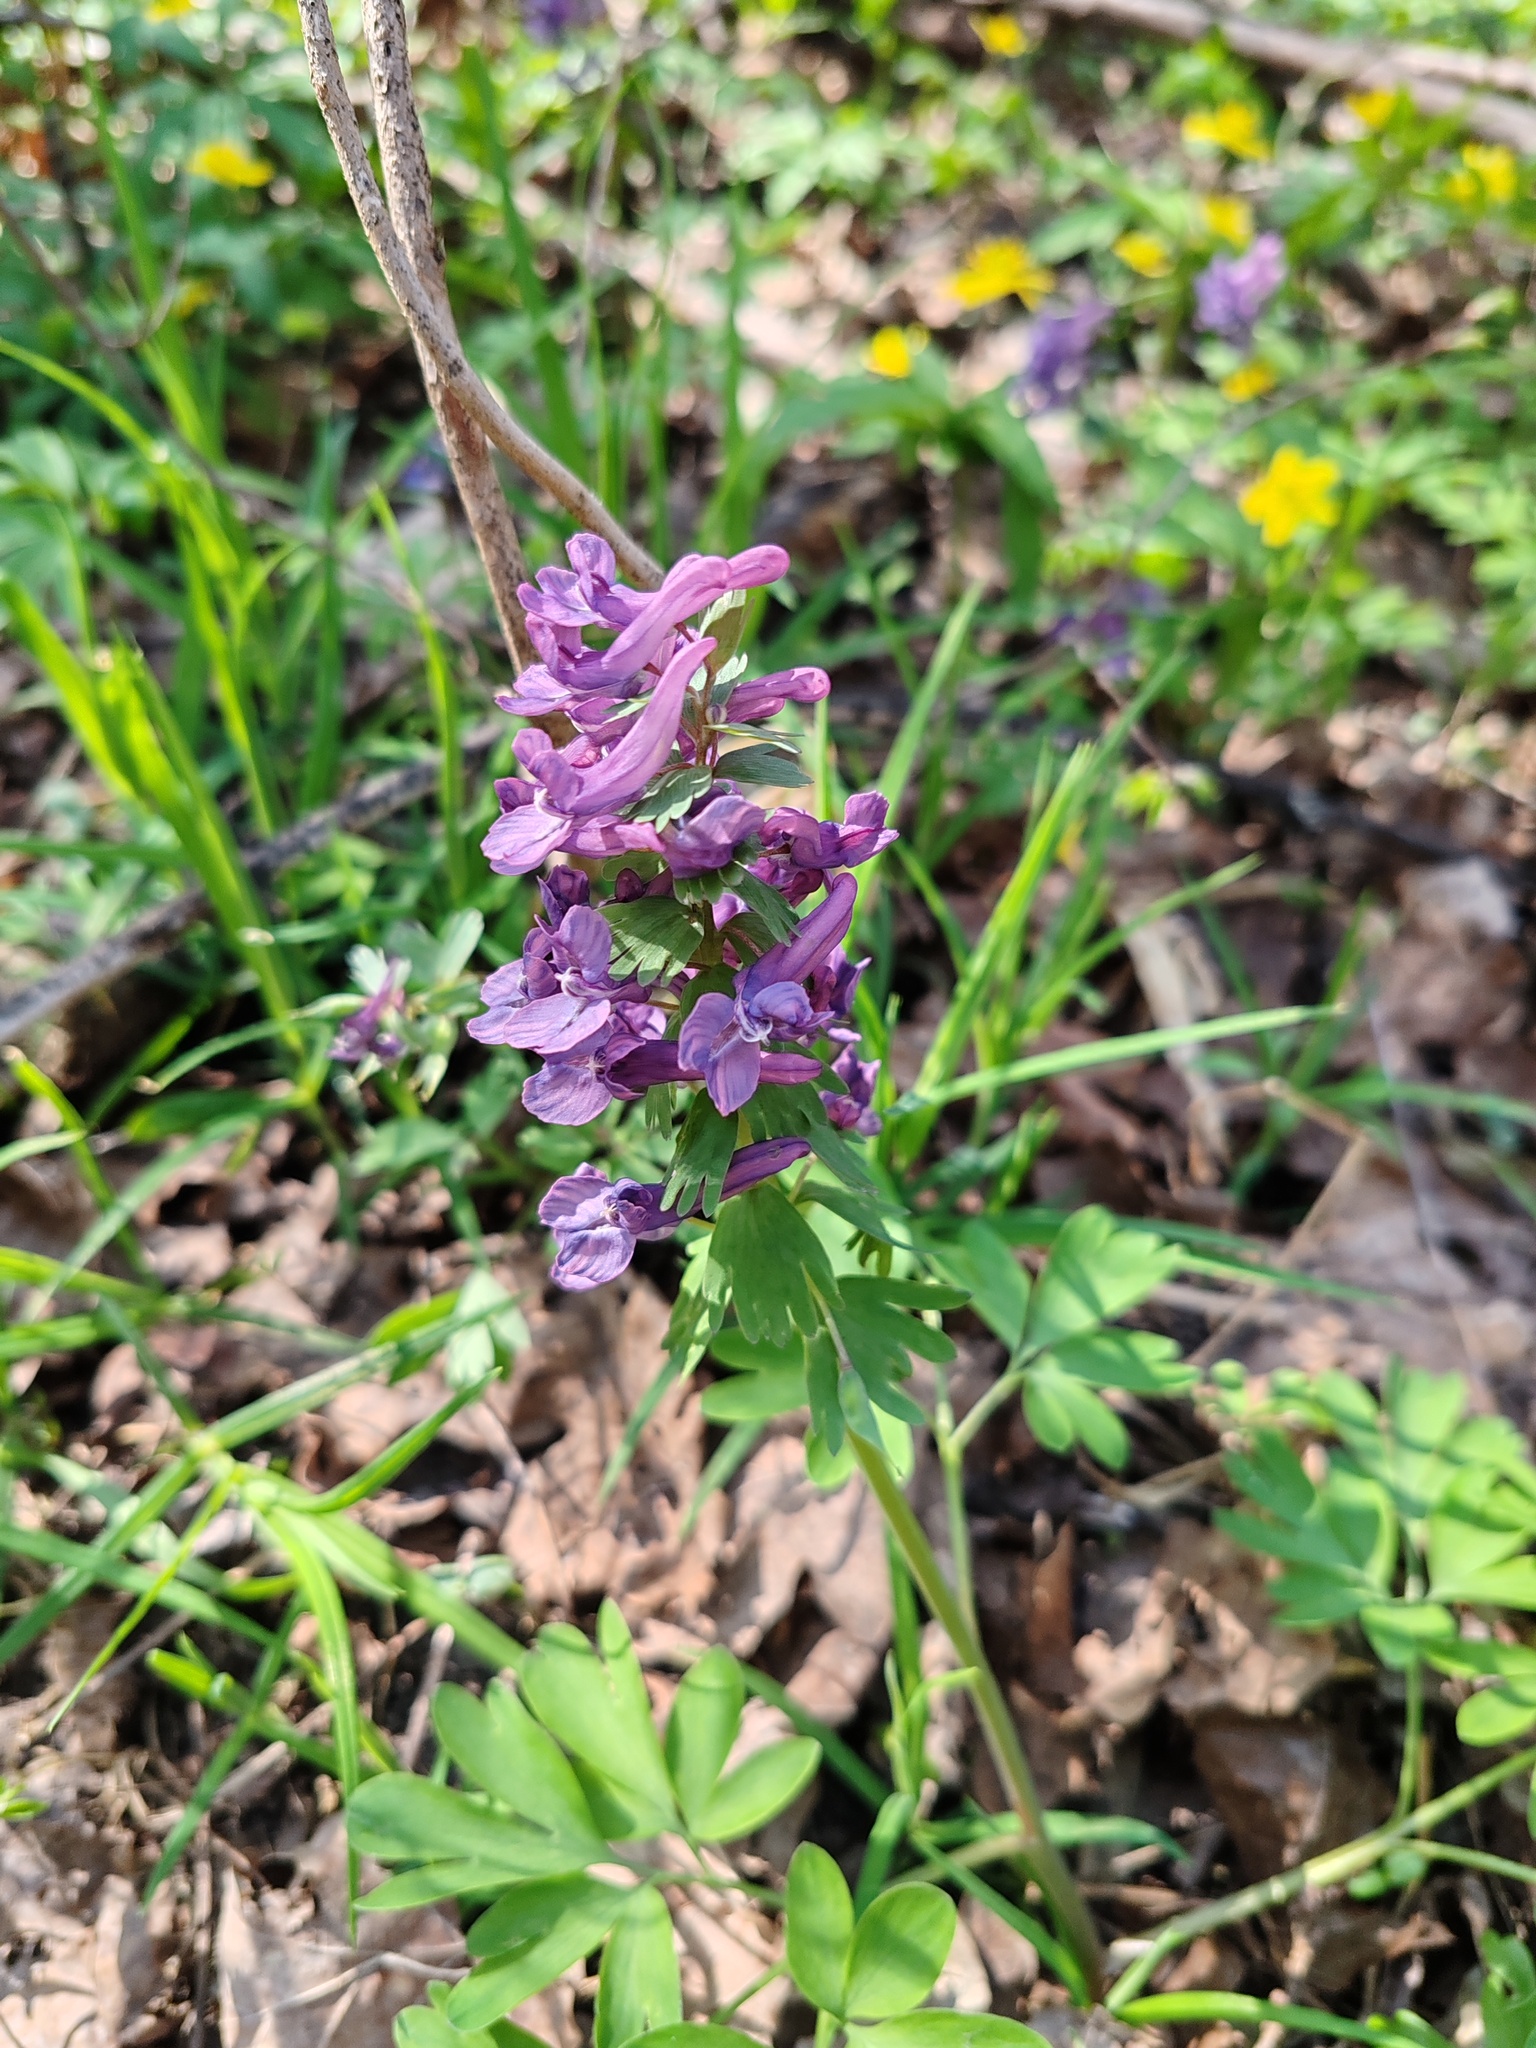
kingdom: Plantae
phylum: Tracheophyta
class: Magnoliopsida
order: Ranunculales
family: Papaveraceae
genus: Corydalis
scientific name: Corydalis solida
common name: Bird-in-a-bush
